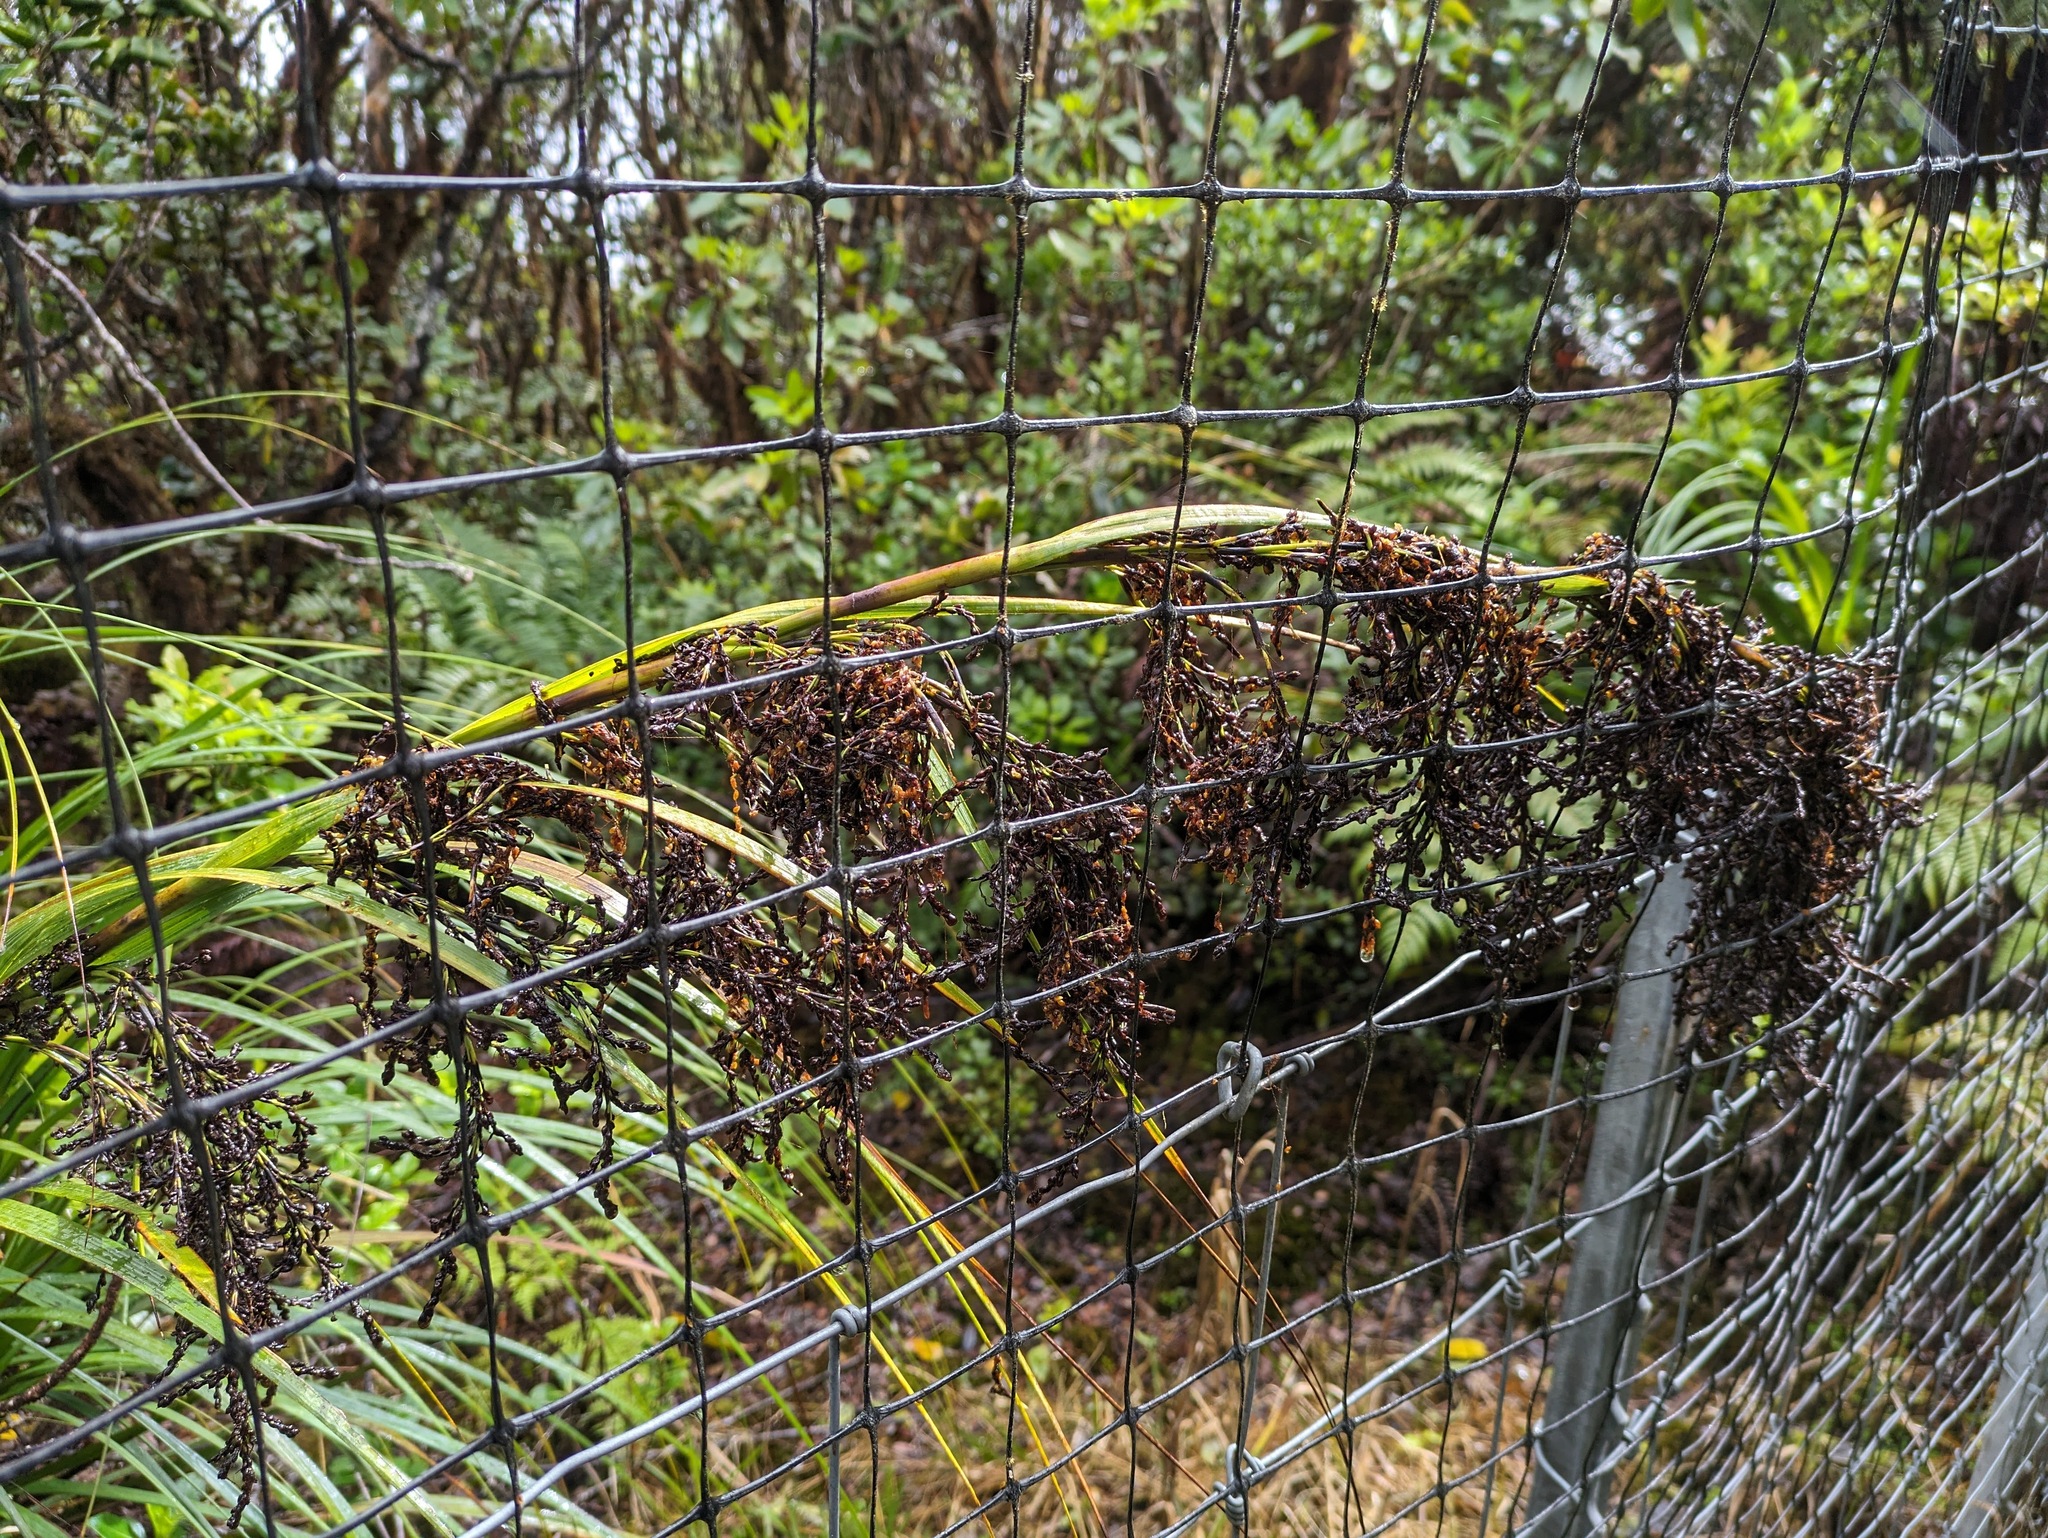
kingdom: Plantae
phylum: Tracheophyta
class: Liliopsida
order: Poales
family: Cyperaceae
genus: Gahnia
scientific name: Gahnia vitiensis
